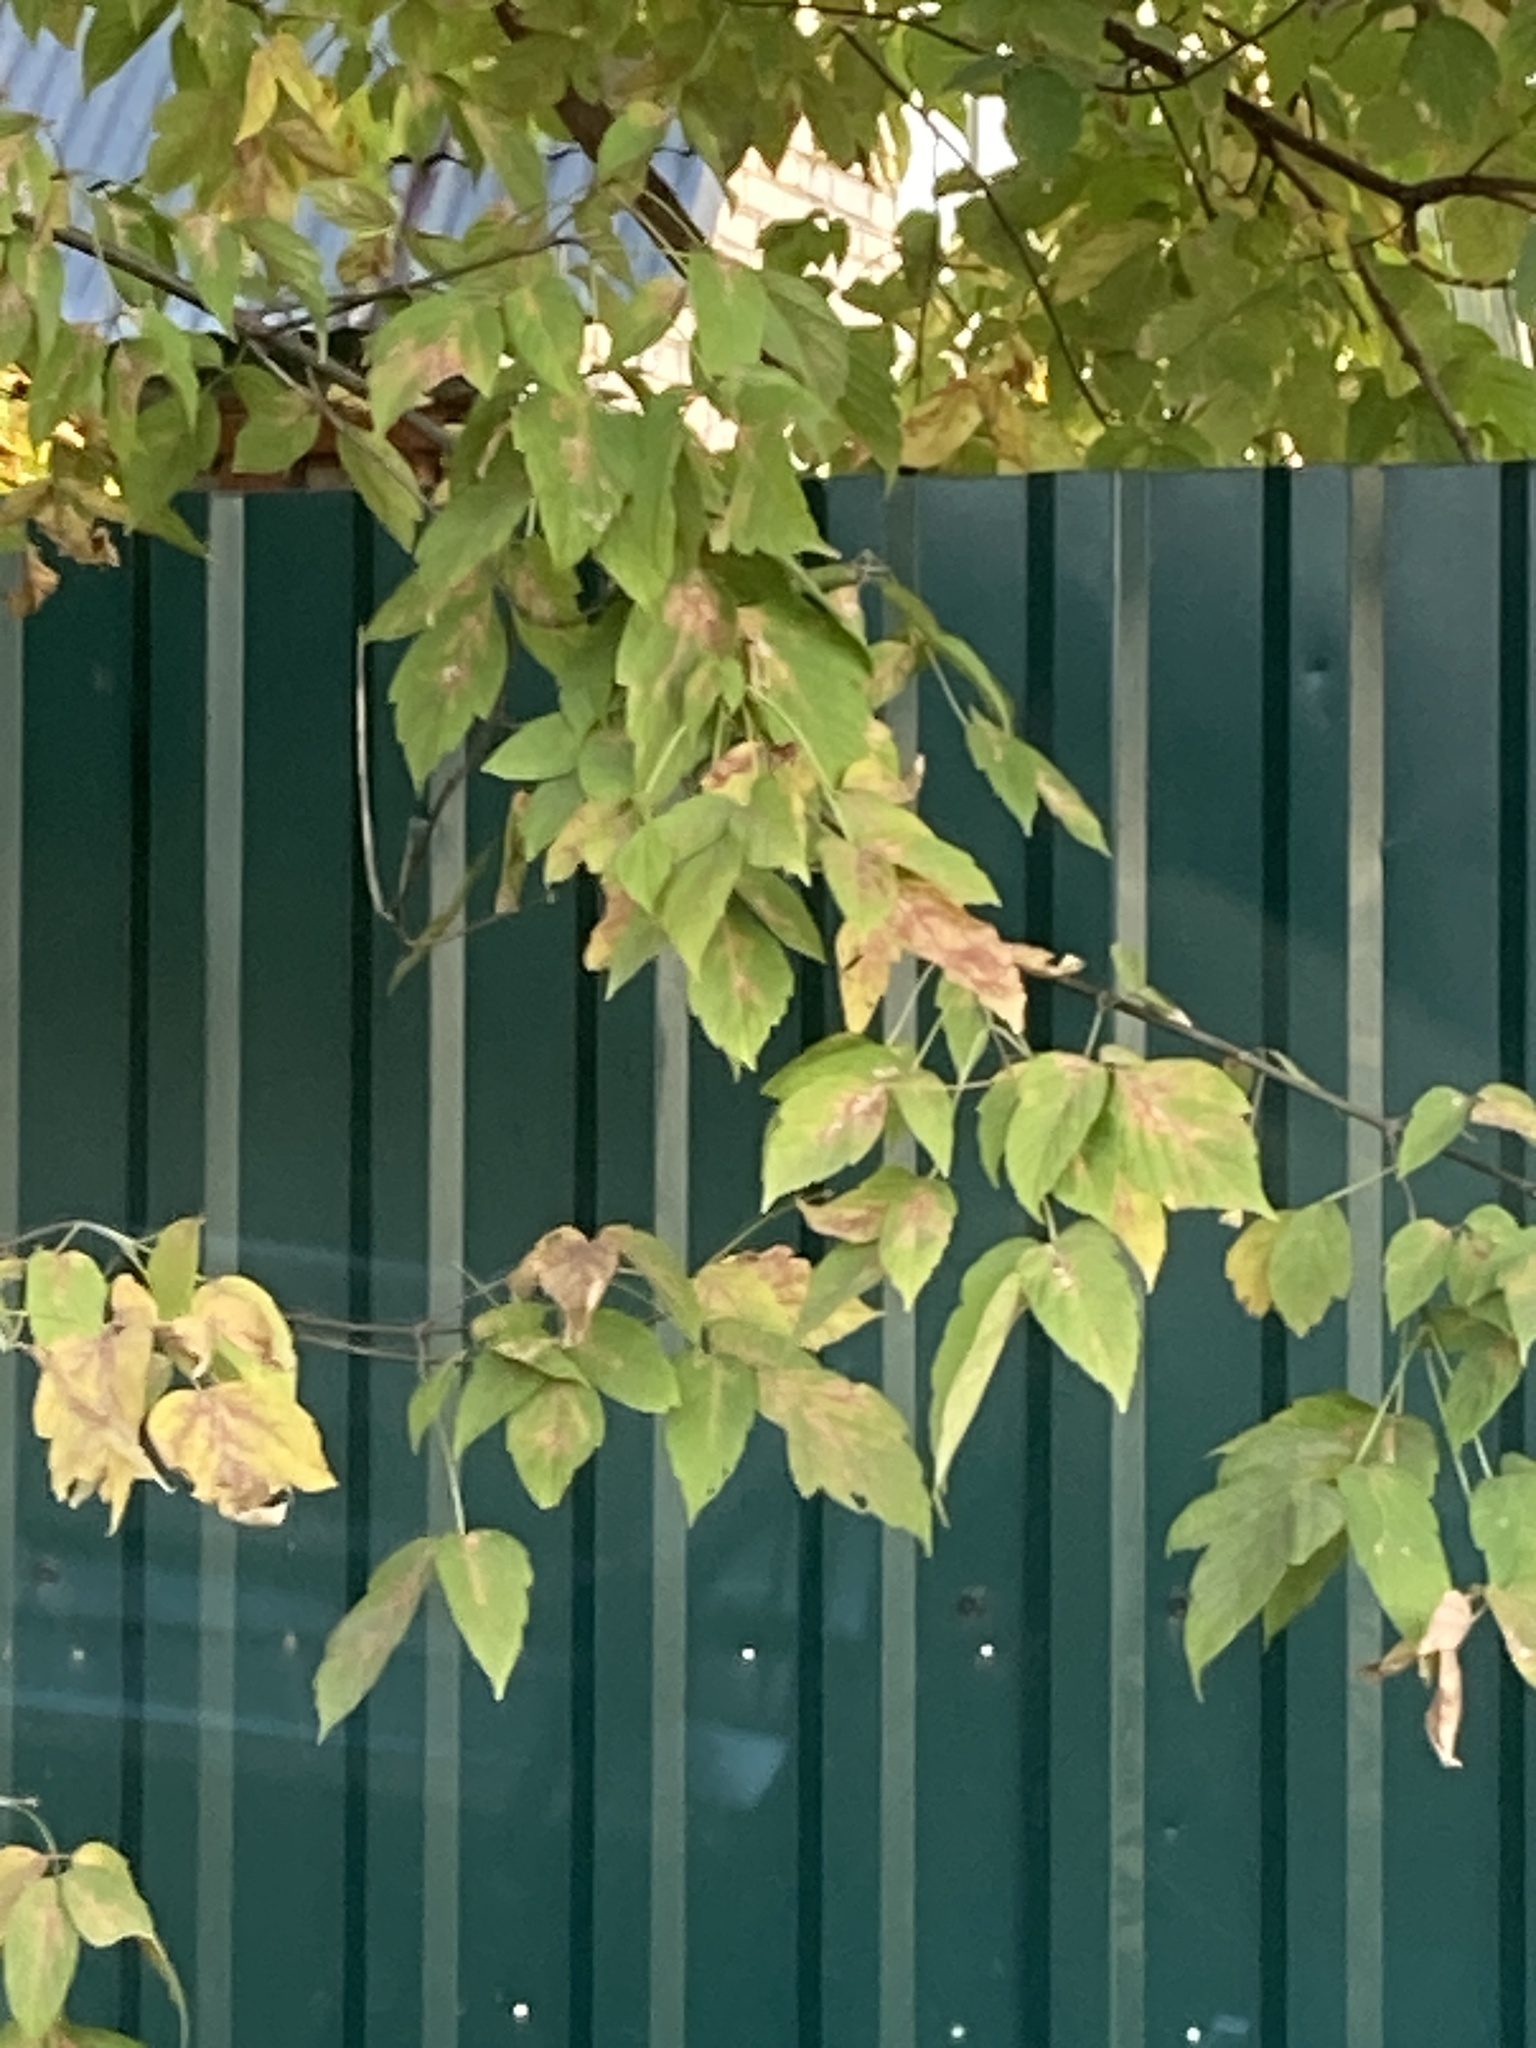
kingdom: Plantae
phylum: Tracheophyta
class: Magnoliopsida
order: Sapindales
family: Sapindaceae
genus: Acer
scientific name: Acer negundo
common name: Ashleaf maple
